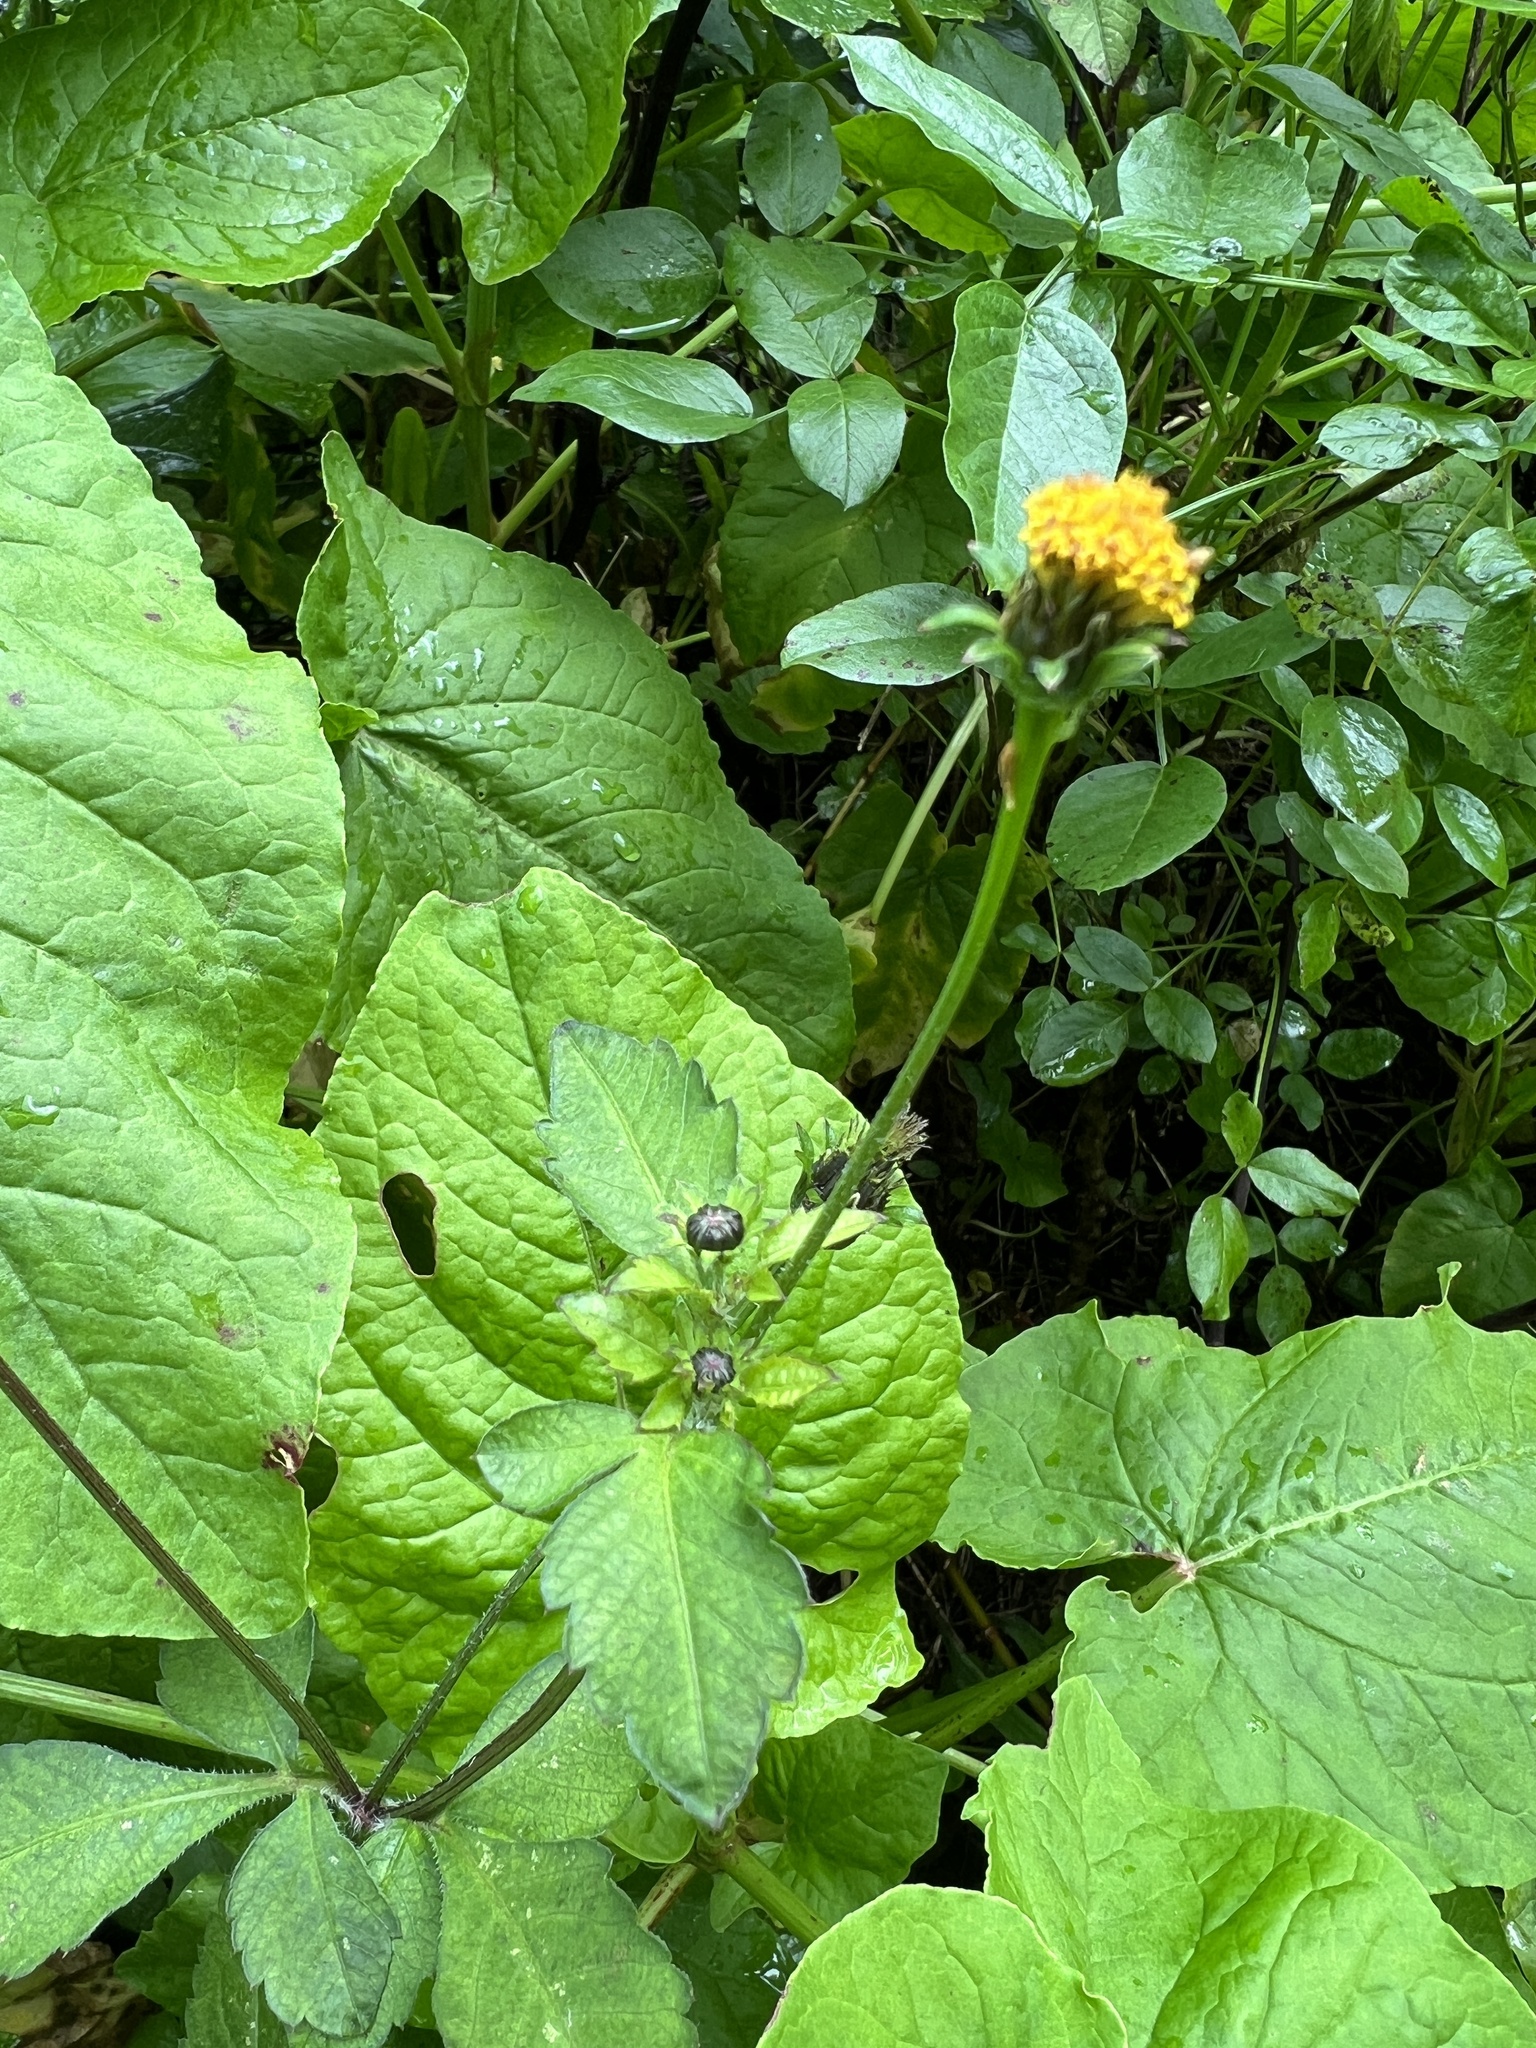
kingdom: Plantae
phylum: Tracheophyta
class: Magnoliopsida
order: Asterales
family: Asteraceae
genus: Bidens
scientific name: Bidens pilosa
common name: Black-jack
